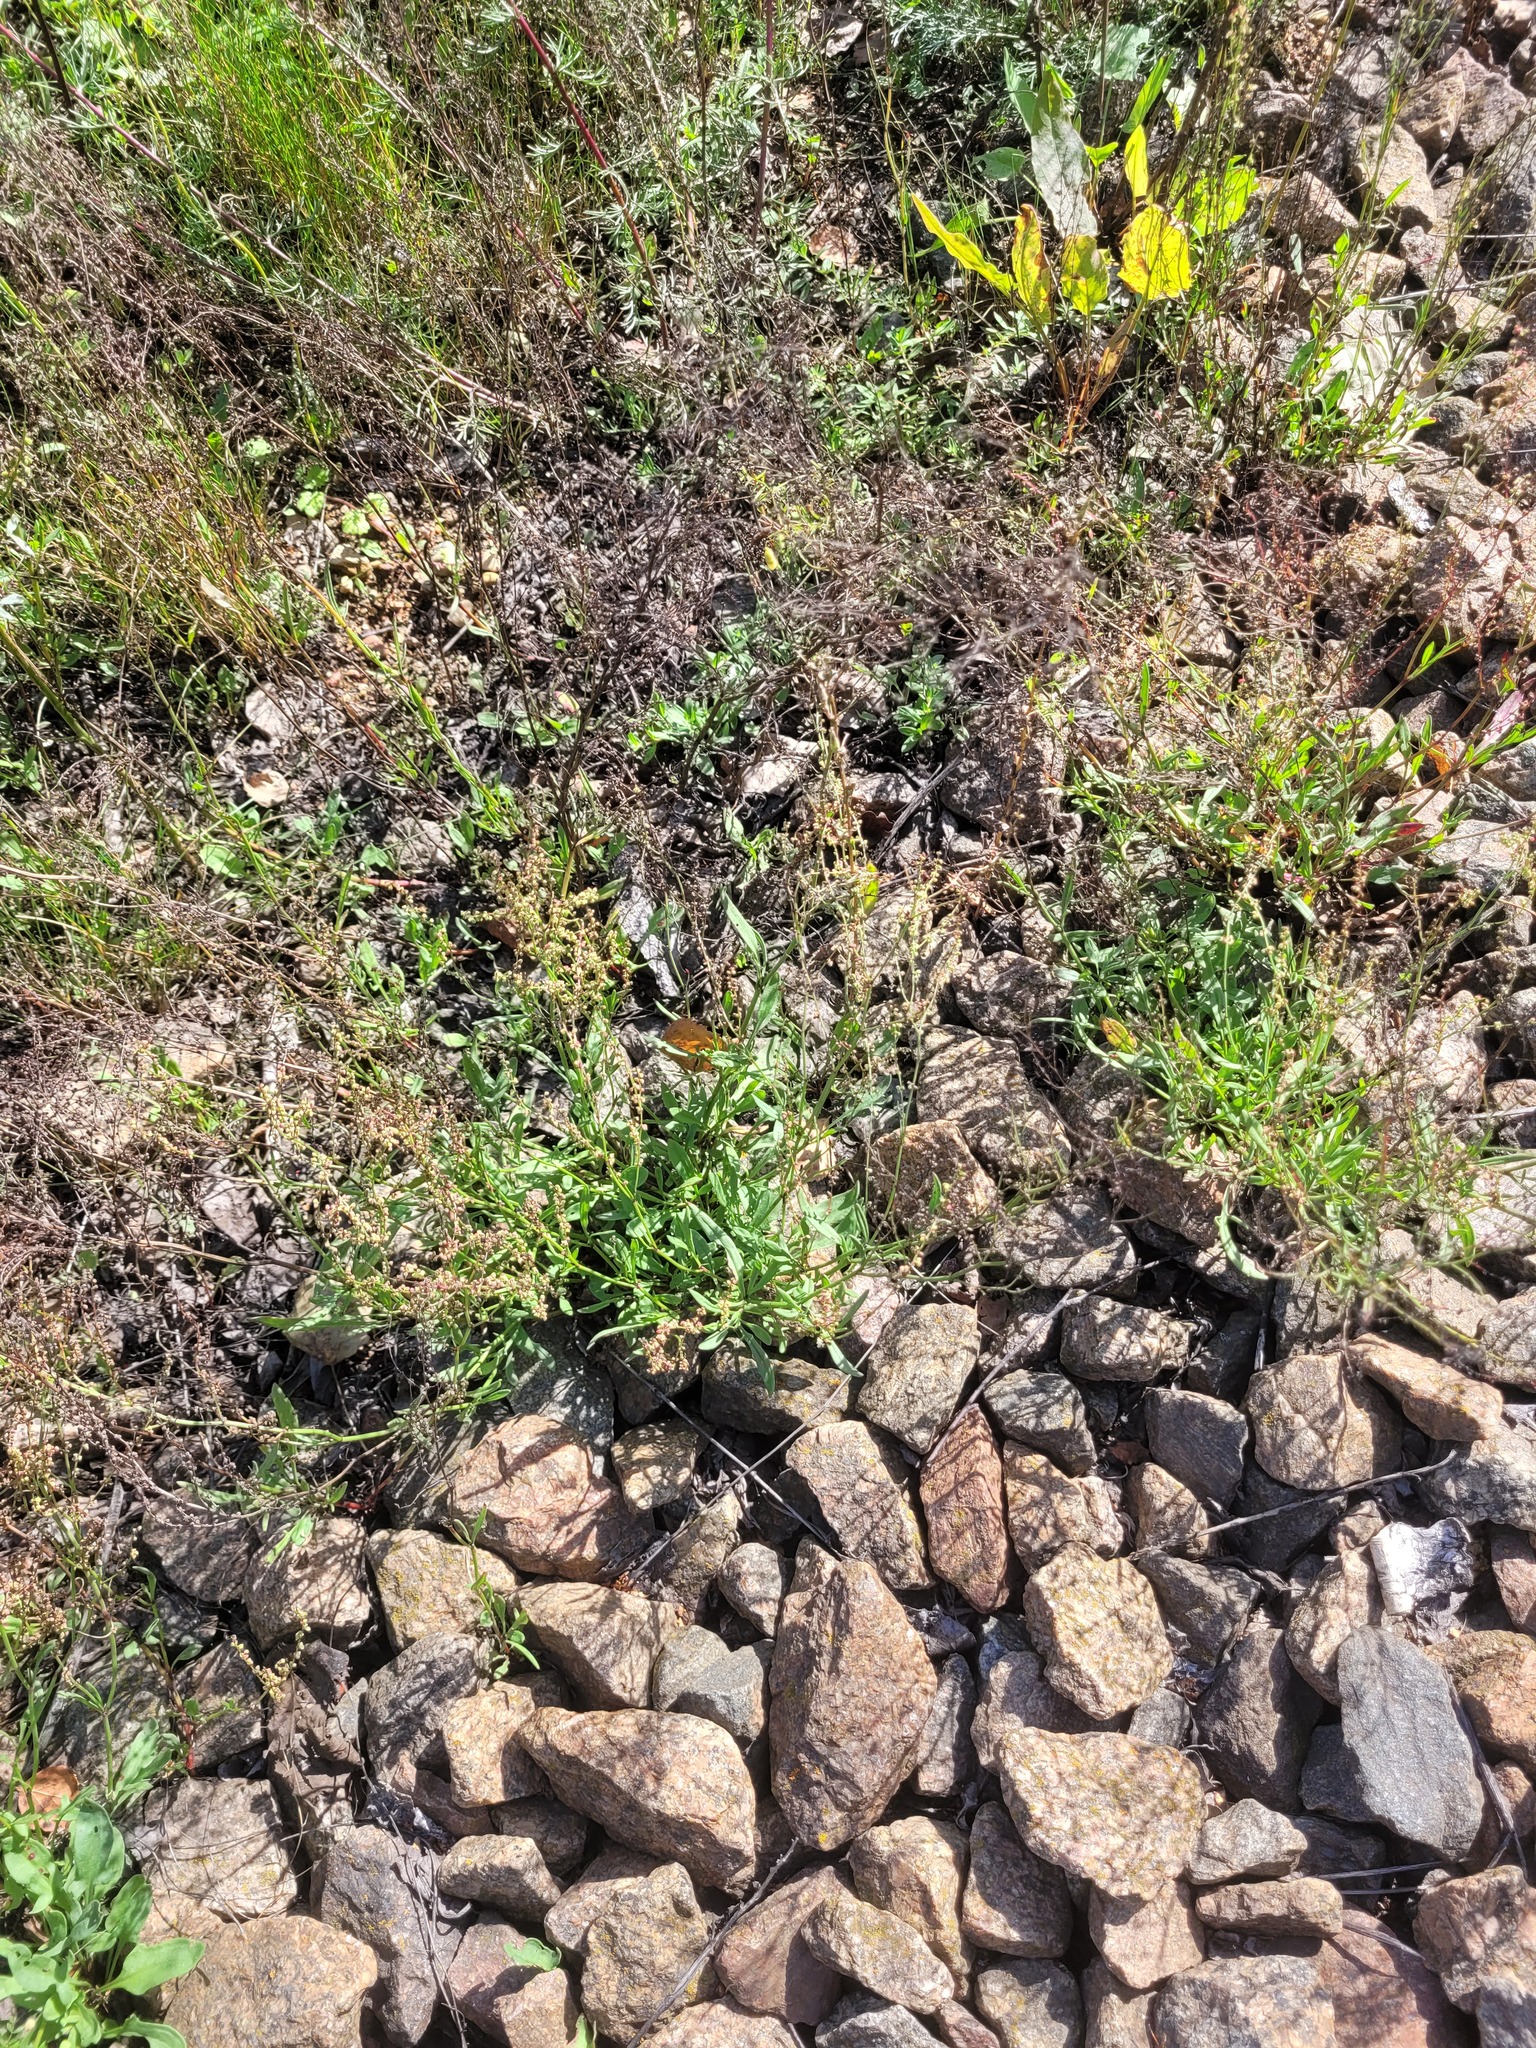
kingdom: Plantae
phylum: Tracheophyta
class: Magnoliopsida
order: Caryophyllales
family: Polygonaceae
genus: Rumex
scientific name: Rumex acetosella
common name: Common sheep sorrel
